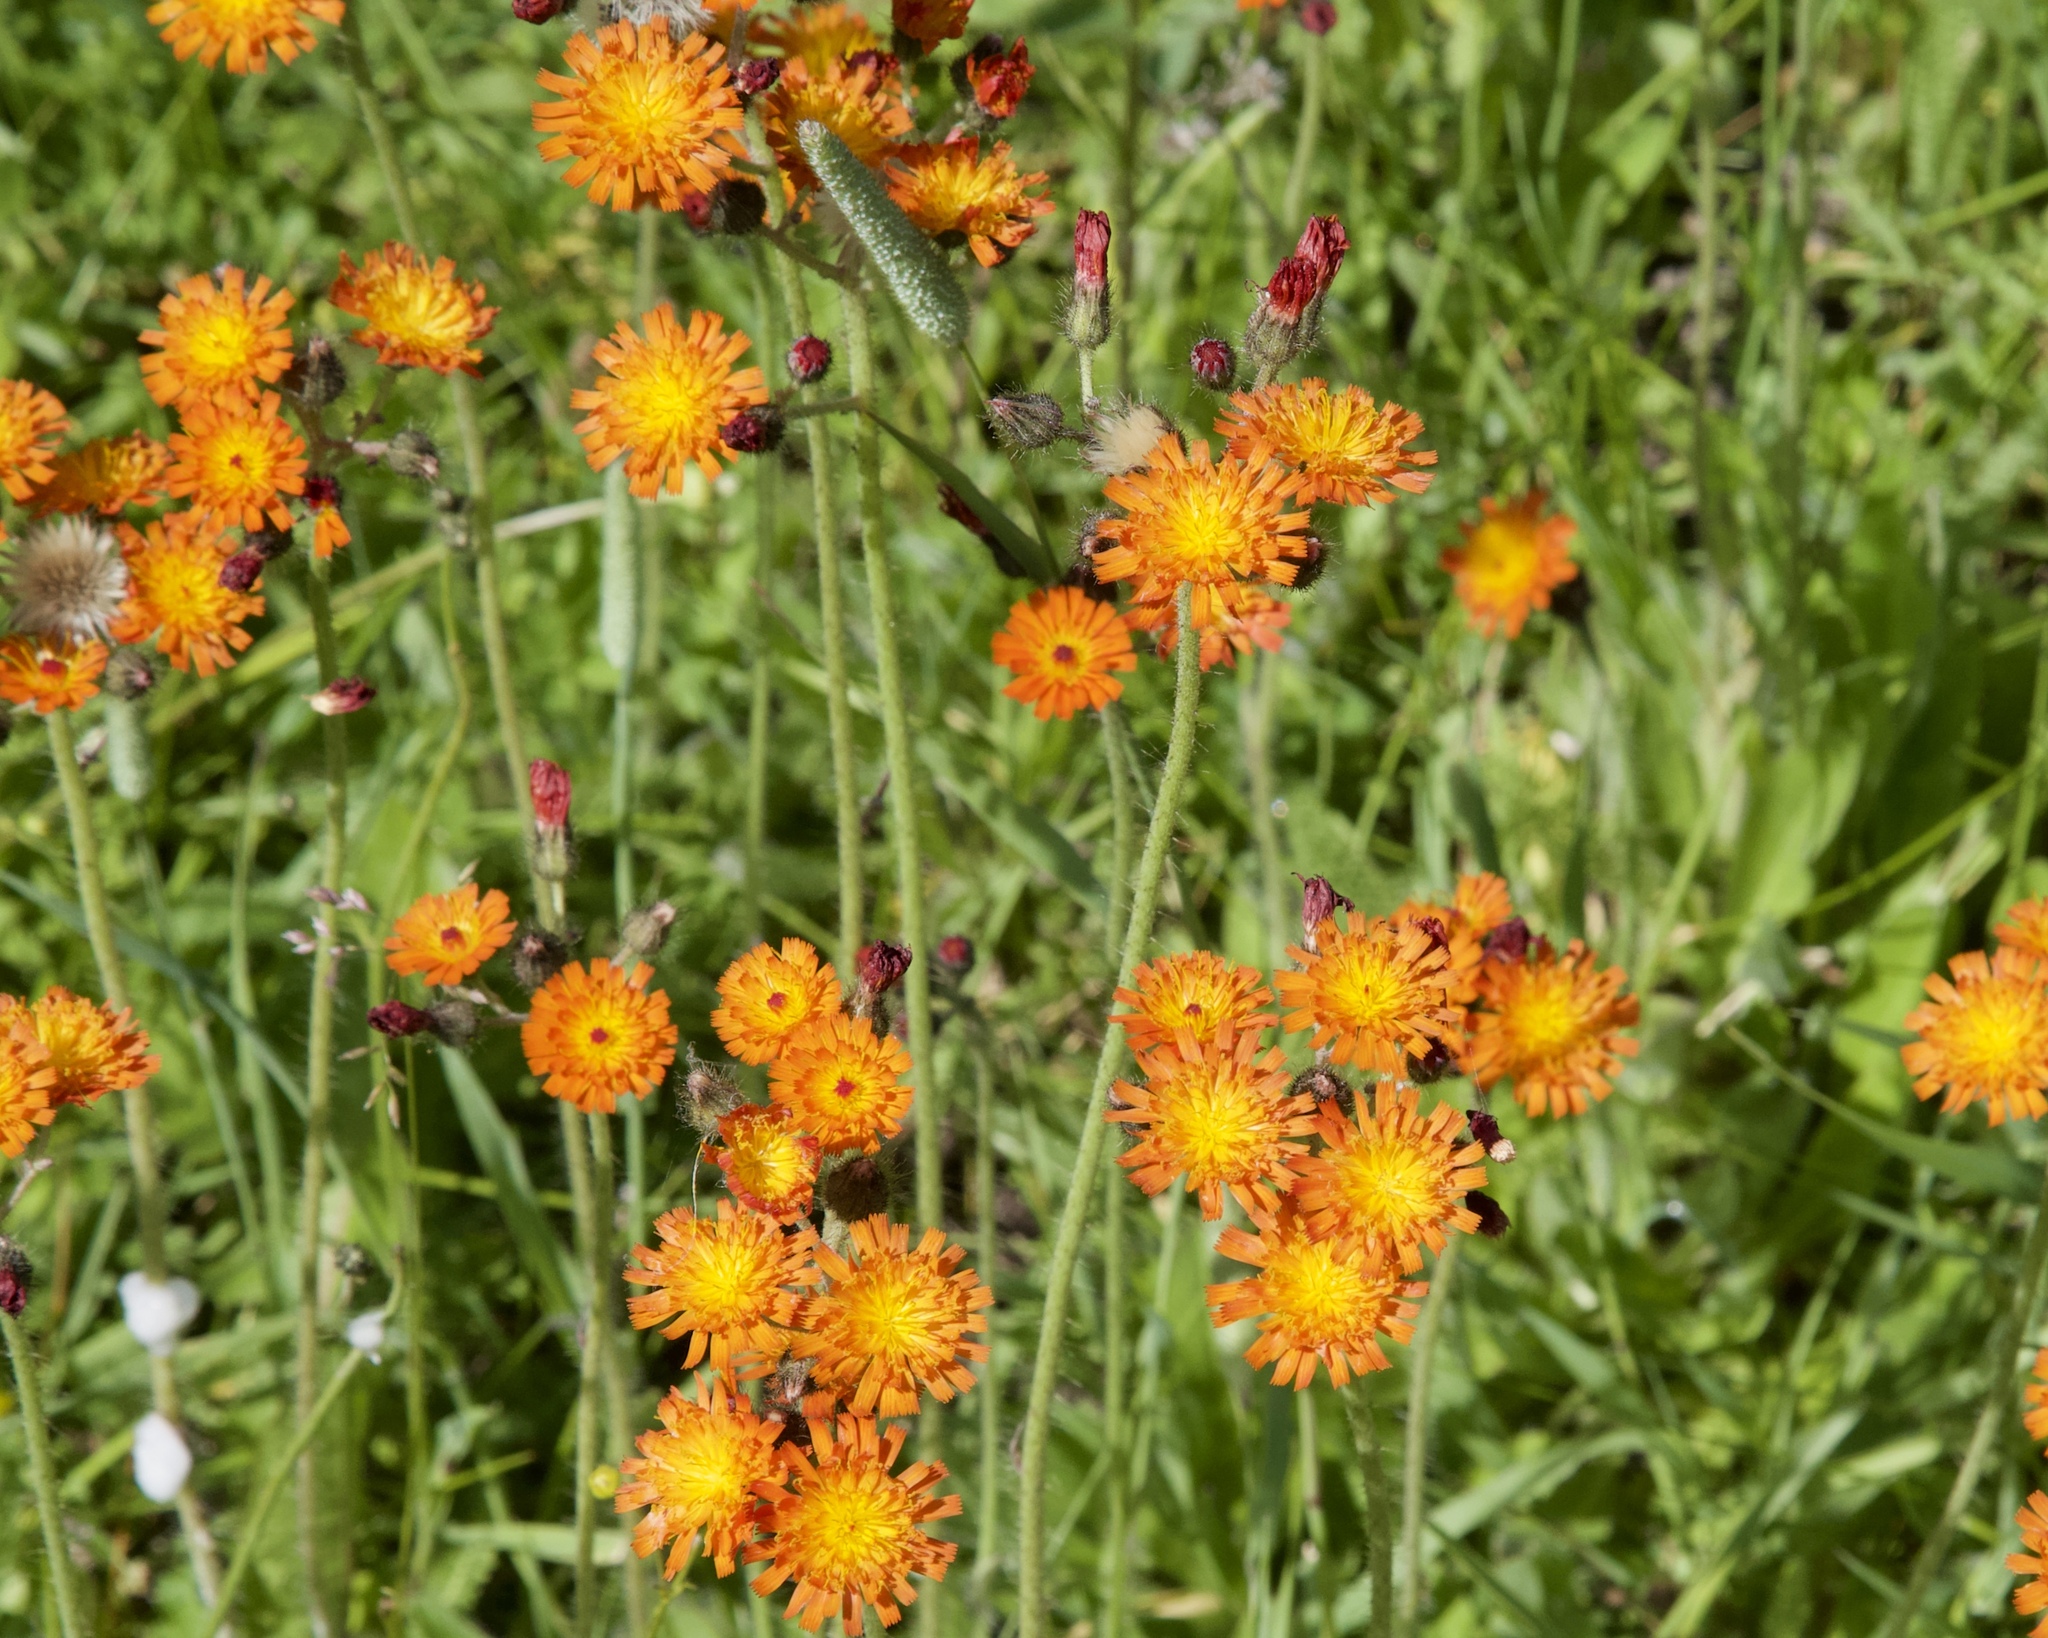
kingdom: Plantae
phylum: Tracheophyta
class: Magnoliopsida
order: Asterales
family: Asteraceae
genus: Pilosella
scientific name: Pilosella aurantiaca
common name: Fox-and-cubs
